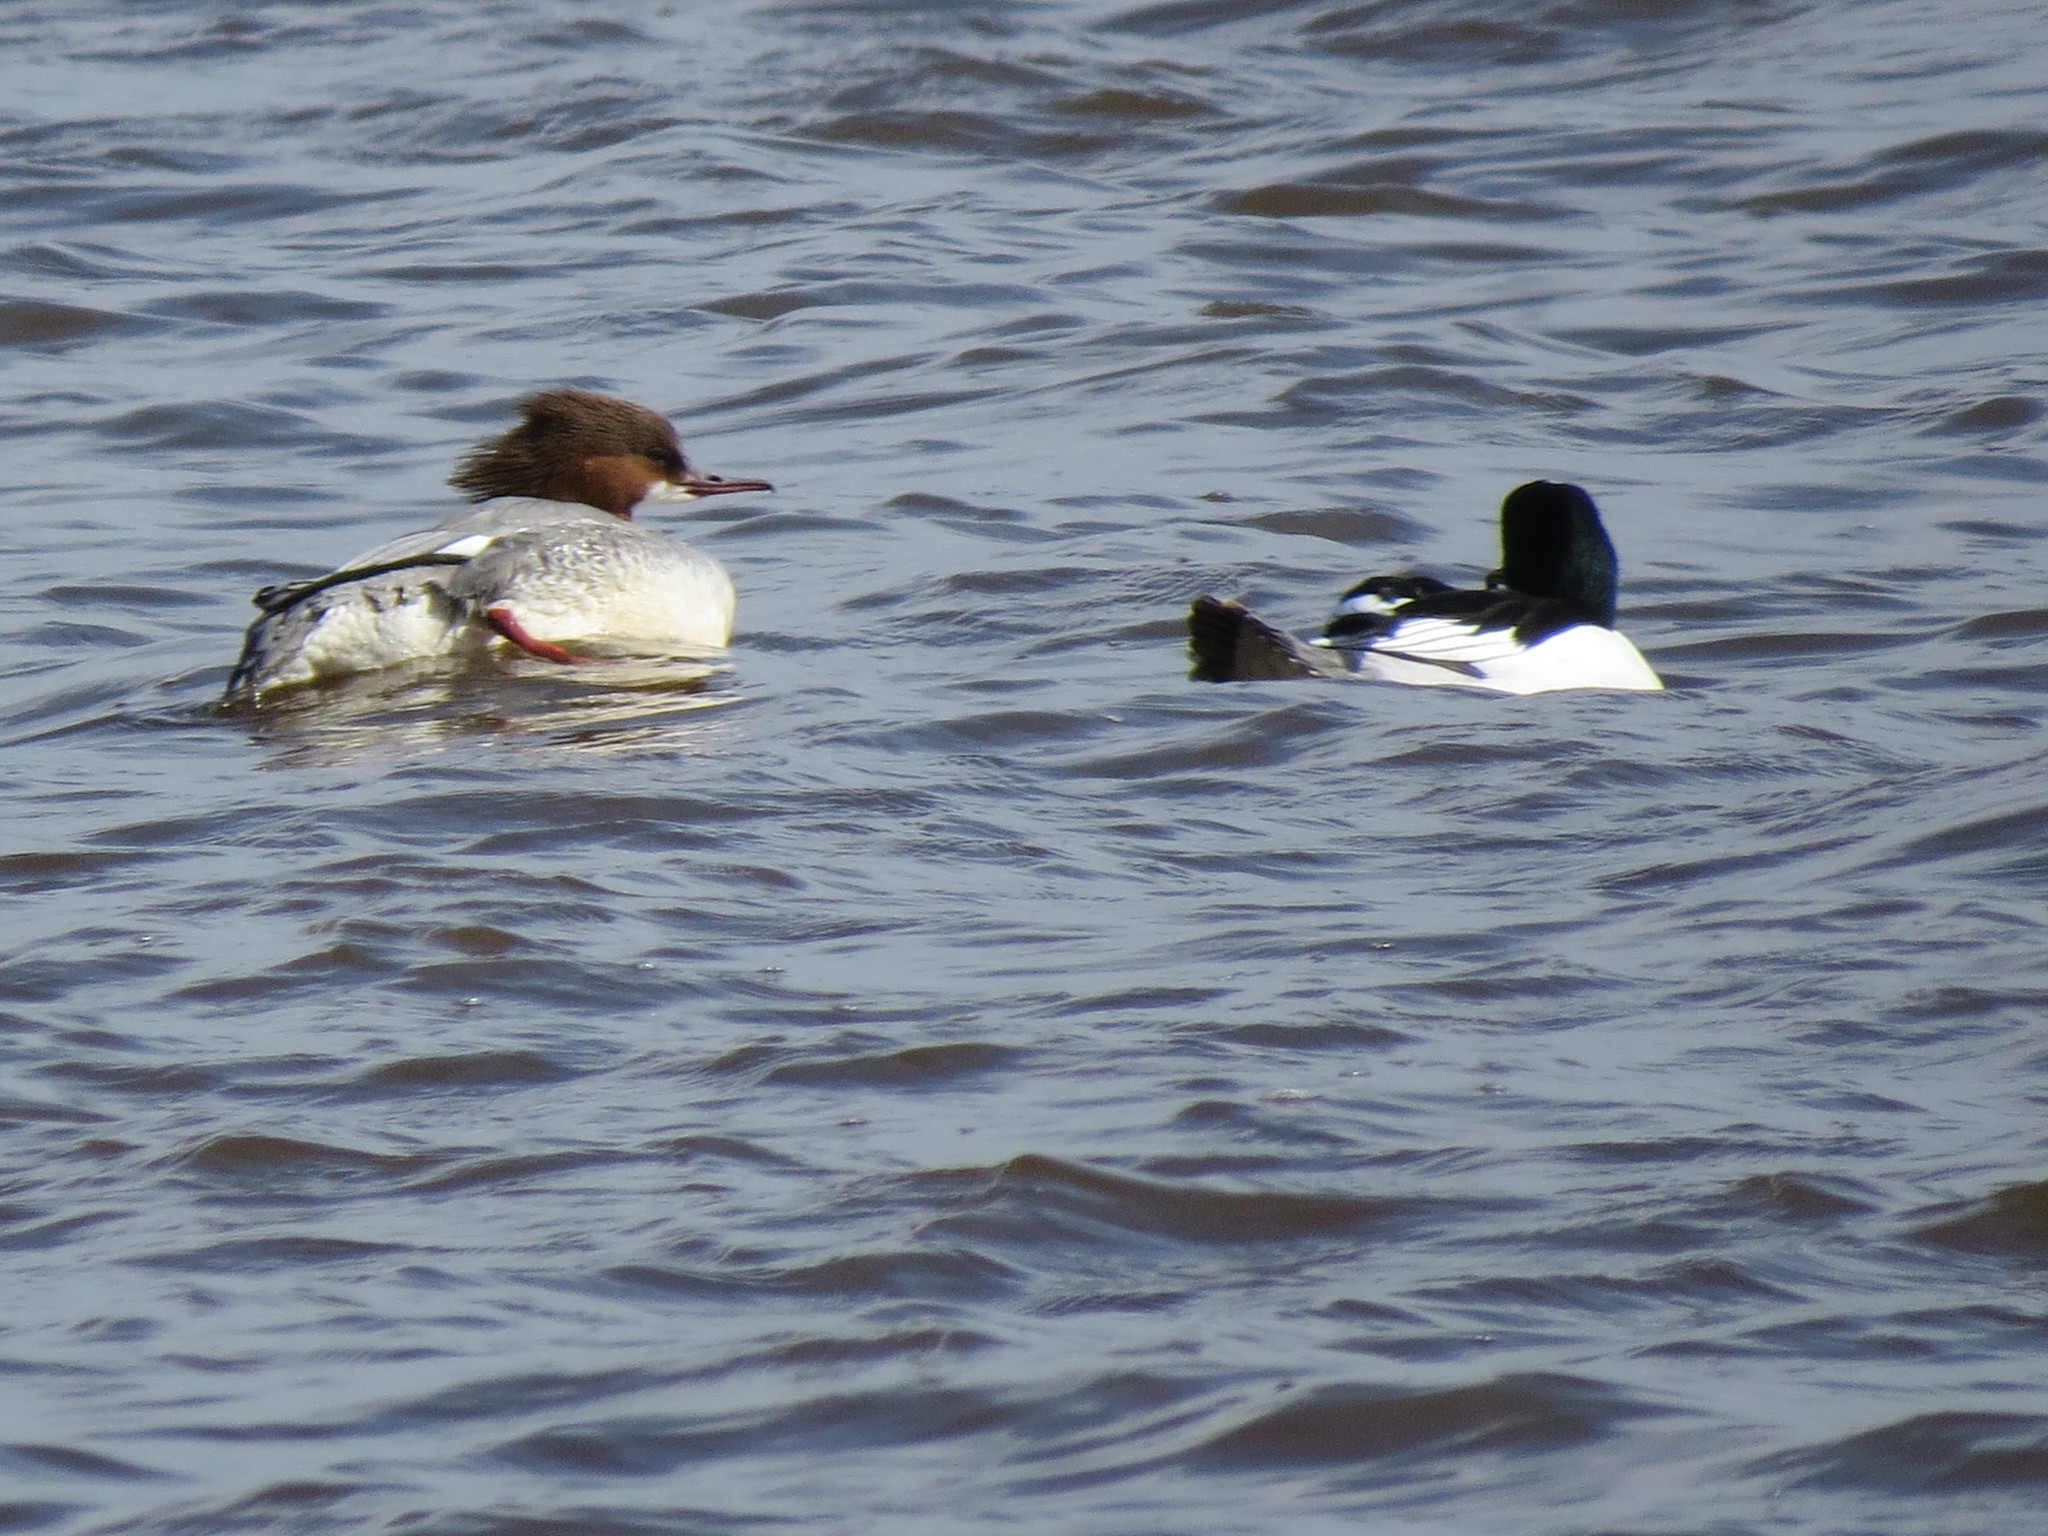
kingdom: Animalia
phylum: Chordata
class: Aves
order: Anseriformes
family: Anatidae
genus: Mergus
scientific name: Mergus merganser
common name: Common merganser
